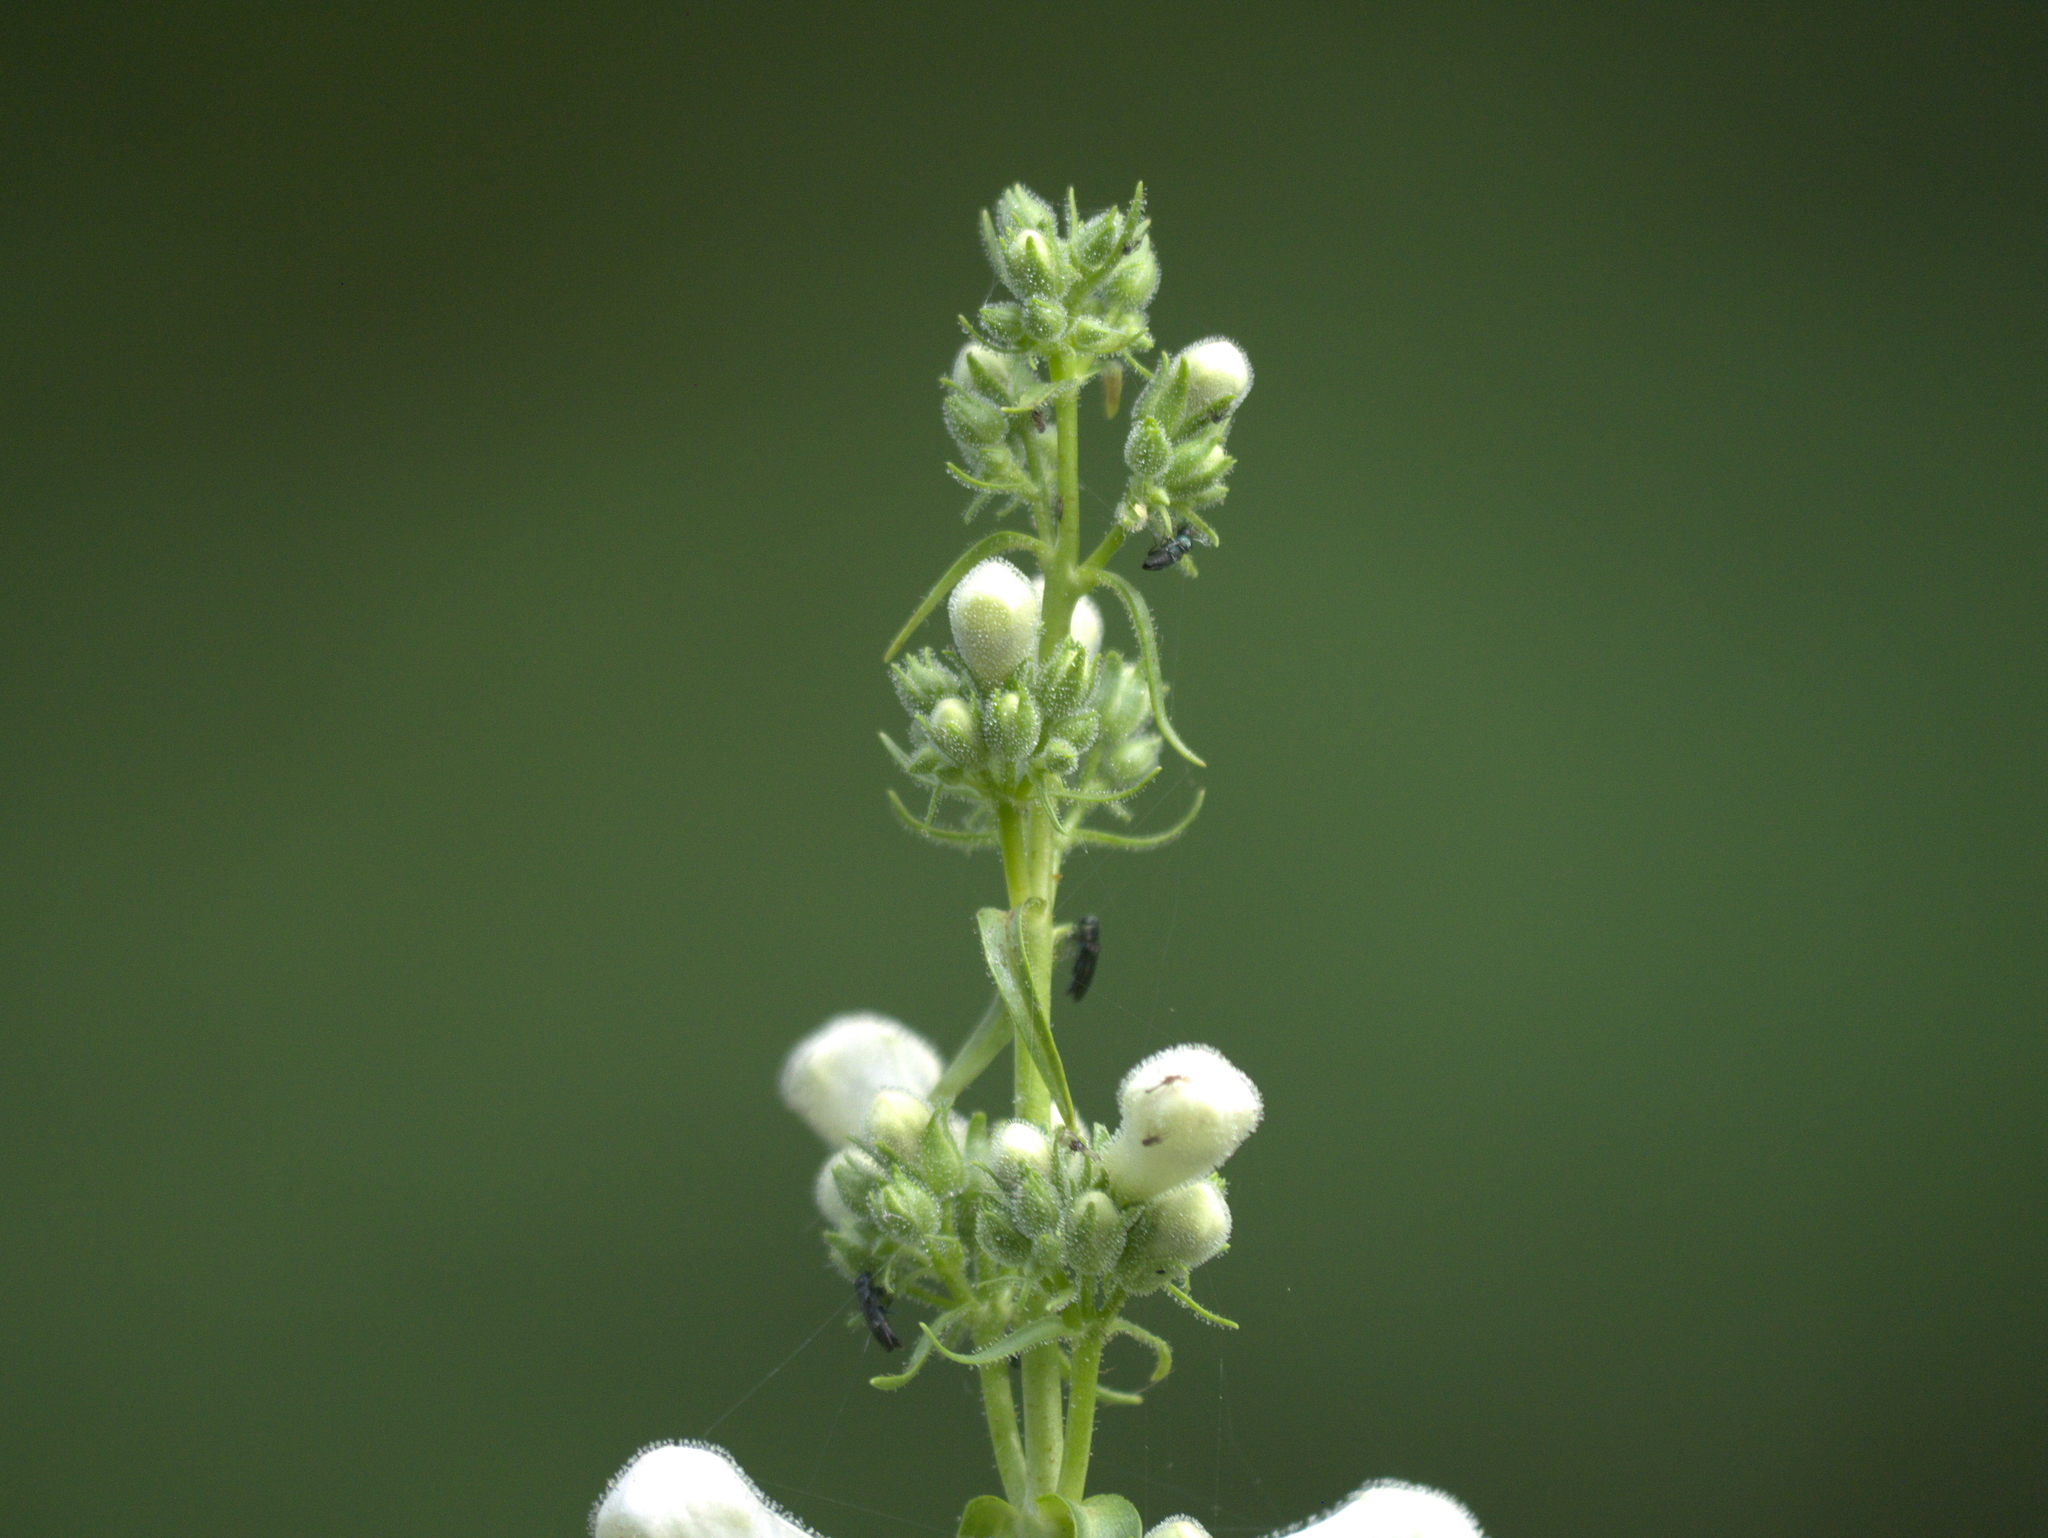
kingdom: Plantae
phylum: Tracheophyta
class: Magnoliopsida
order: Lamiales
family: Plantaginaceae
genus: Penstemon
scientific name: Penstemon tubaeflorus
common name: White wand beardtongue
